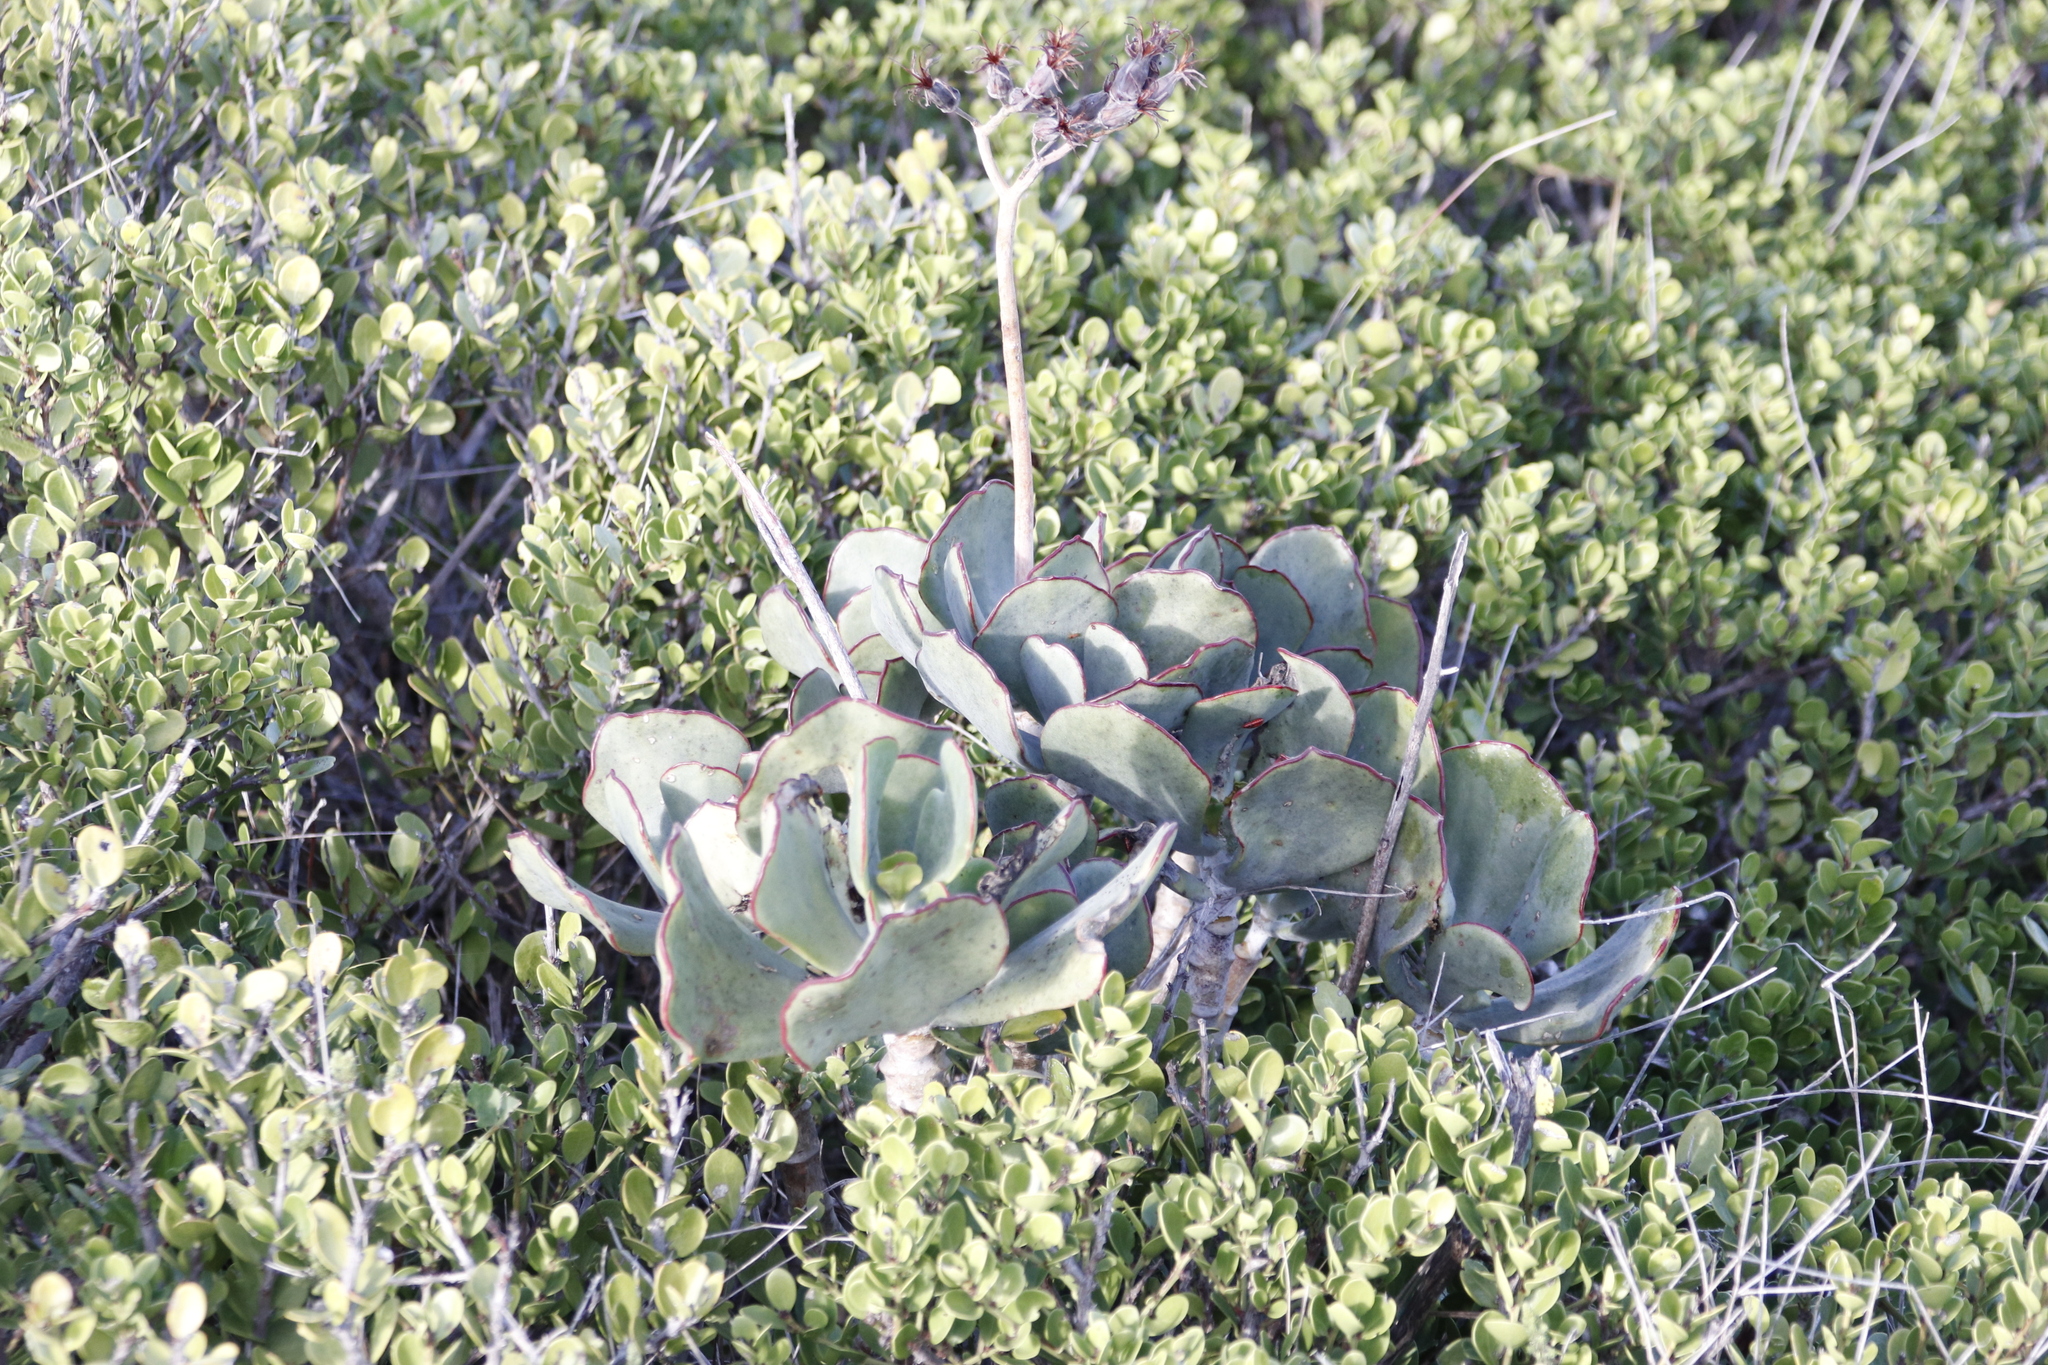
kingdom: Plantae
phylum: Tracheophyta
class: Magnoliopsida
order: Saxifragales
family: Crassulaceae
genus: Cotyledon
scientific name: Cotyledon orbiculata
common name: Pig's ear
